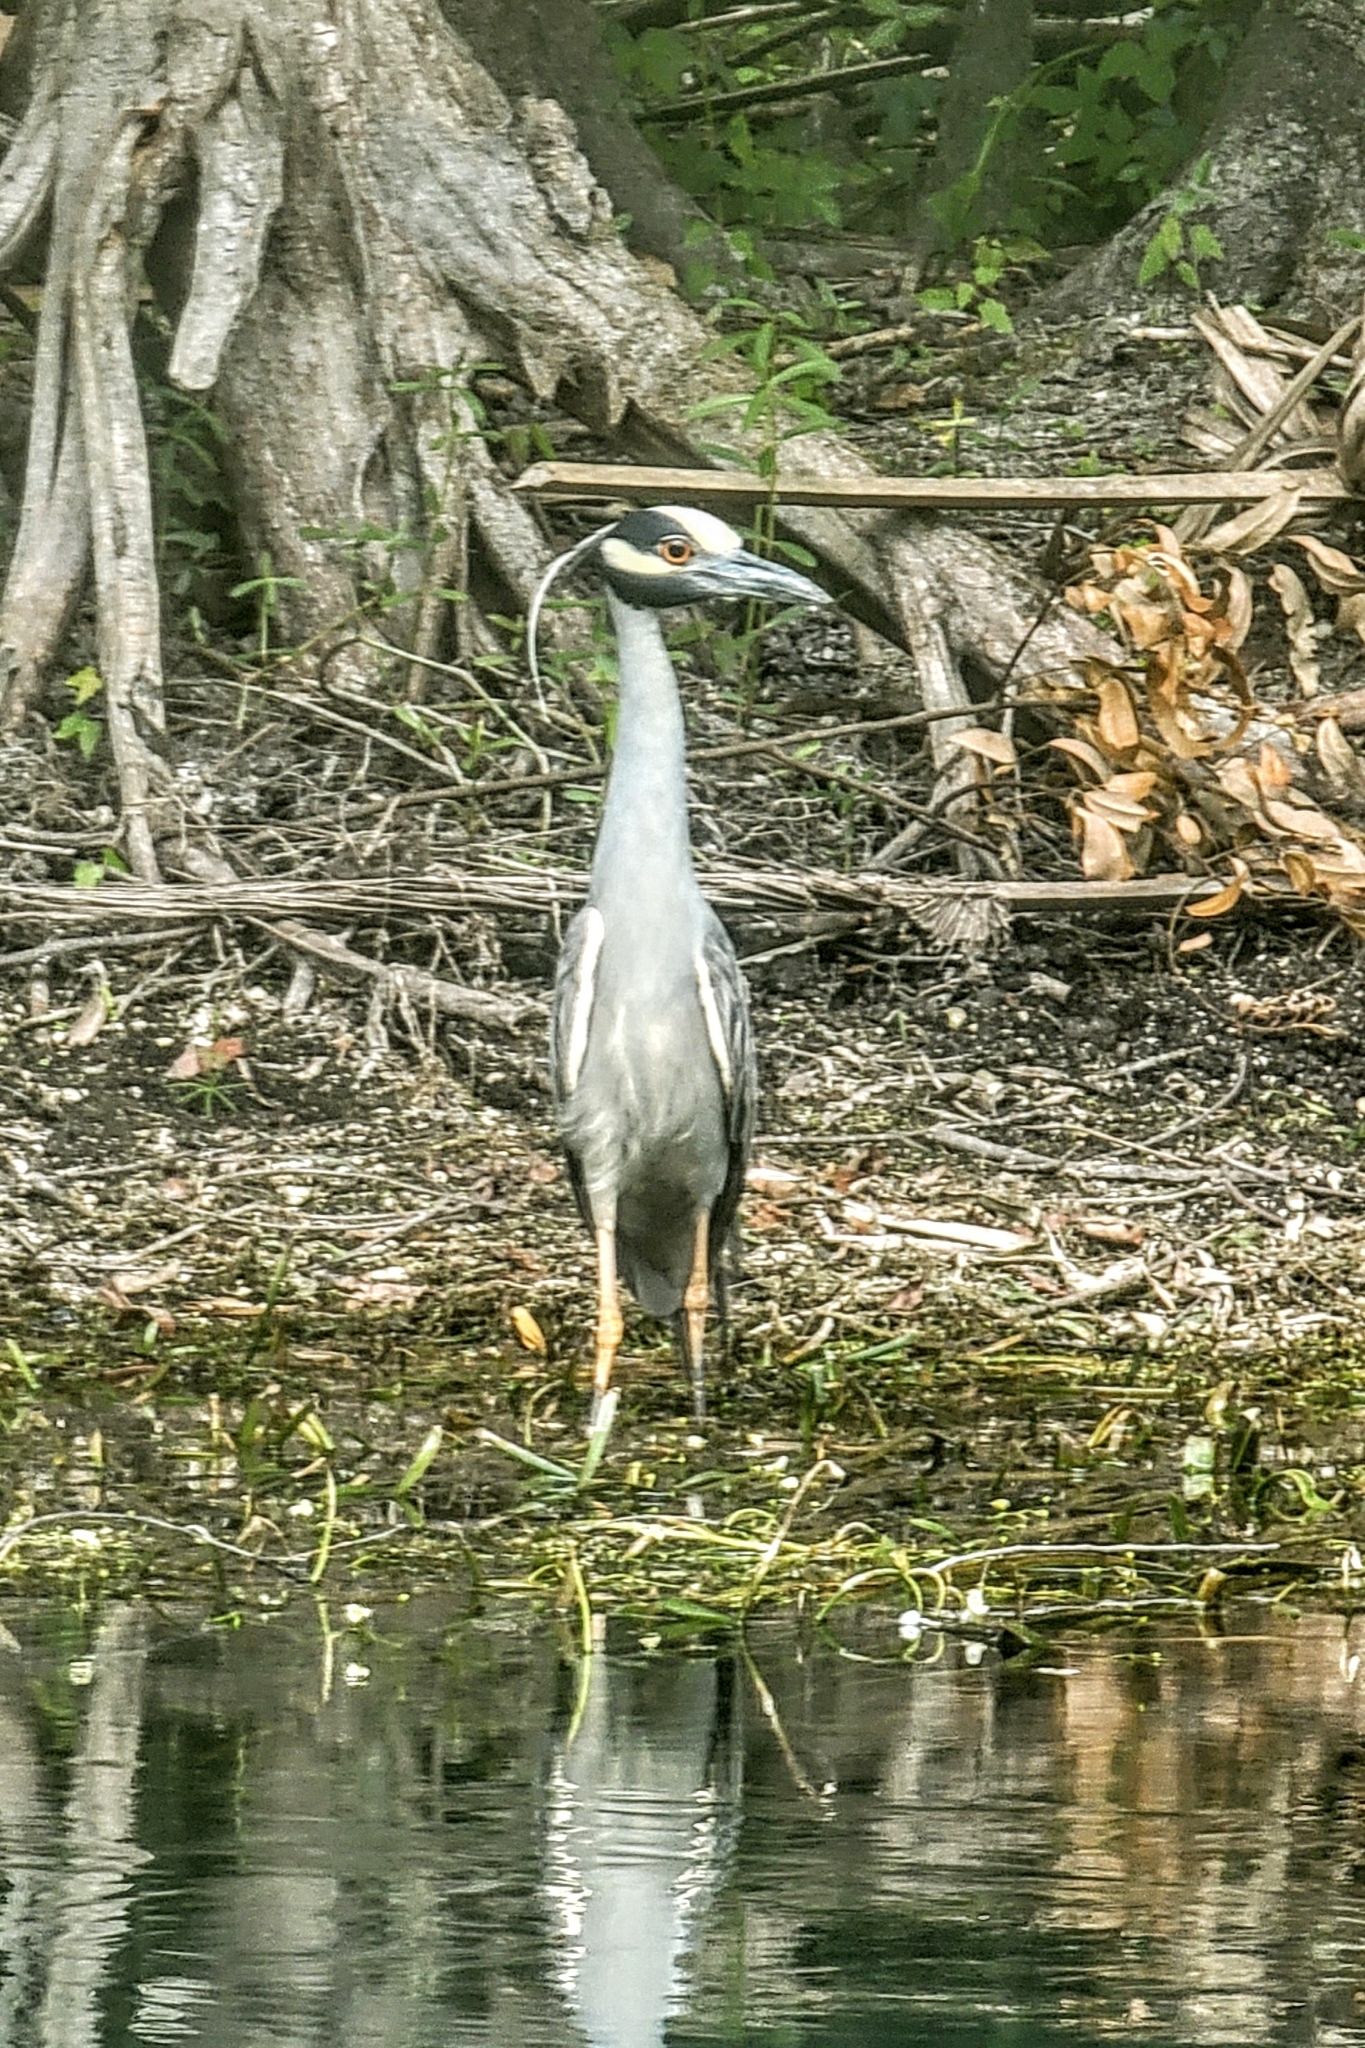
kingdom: Animalia
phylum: Chordata
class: Aves
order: Pelecaniformes
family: Ardeidae
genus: Nyctanassa
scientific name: Nyctanassa violacea
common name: Yellow-crowned night heron
